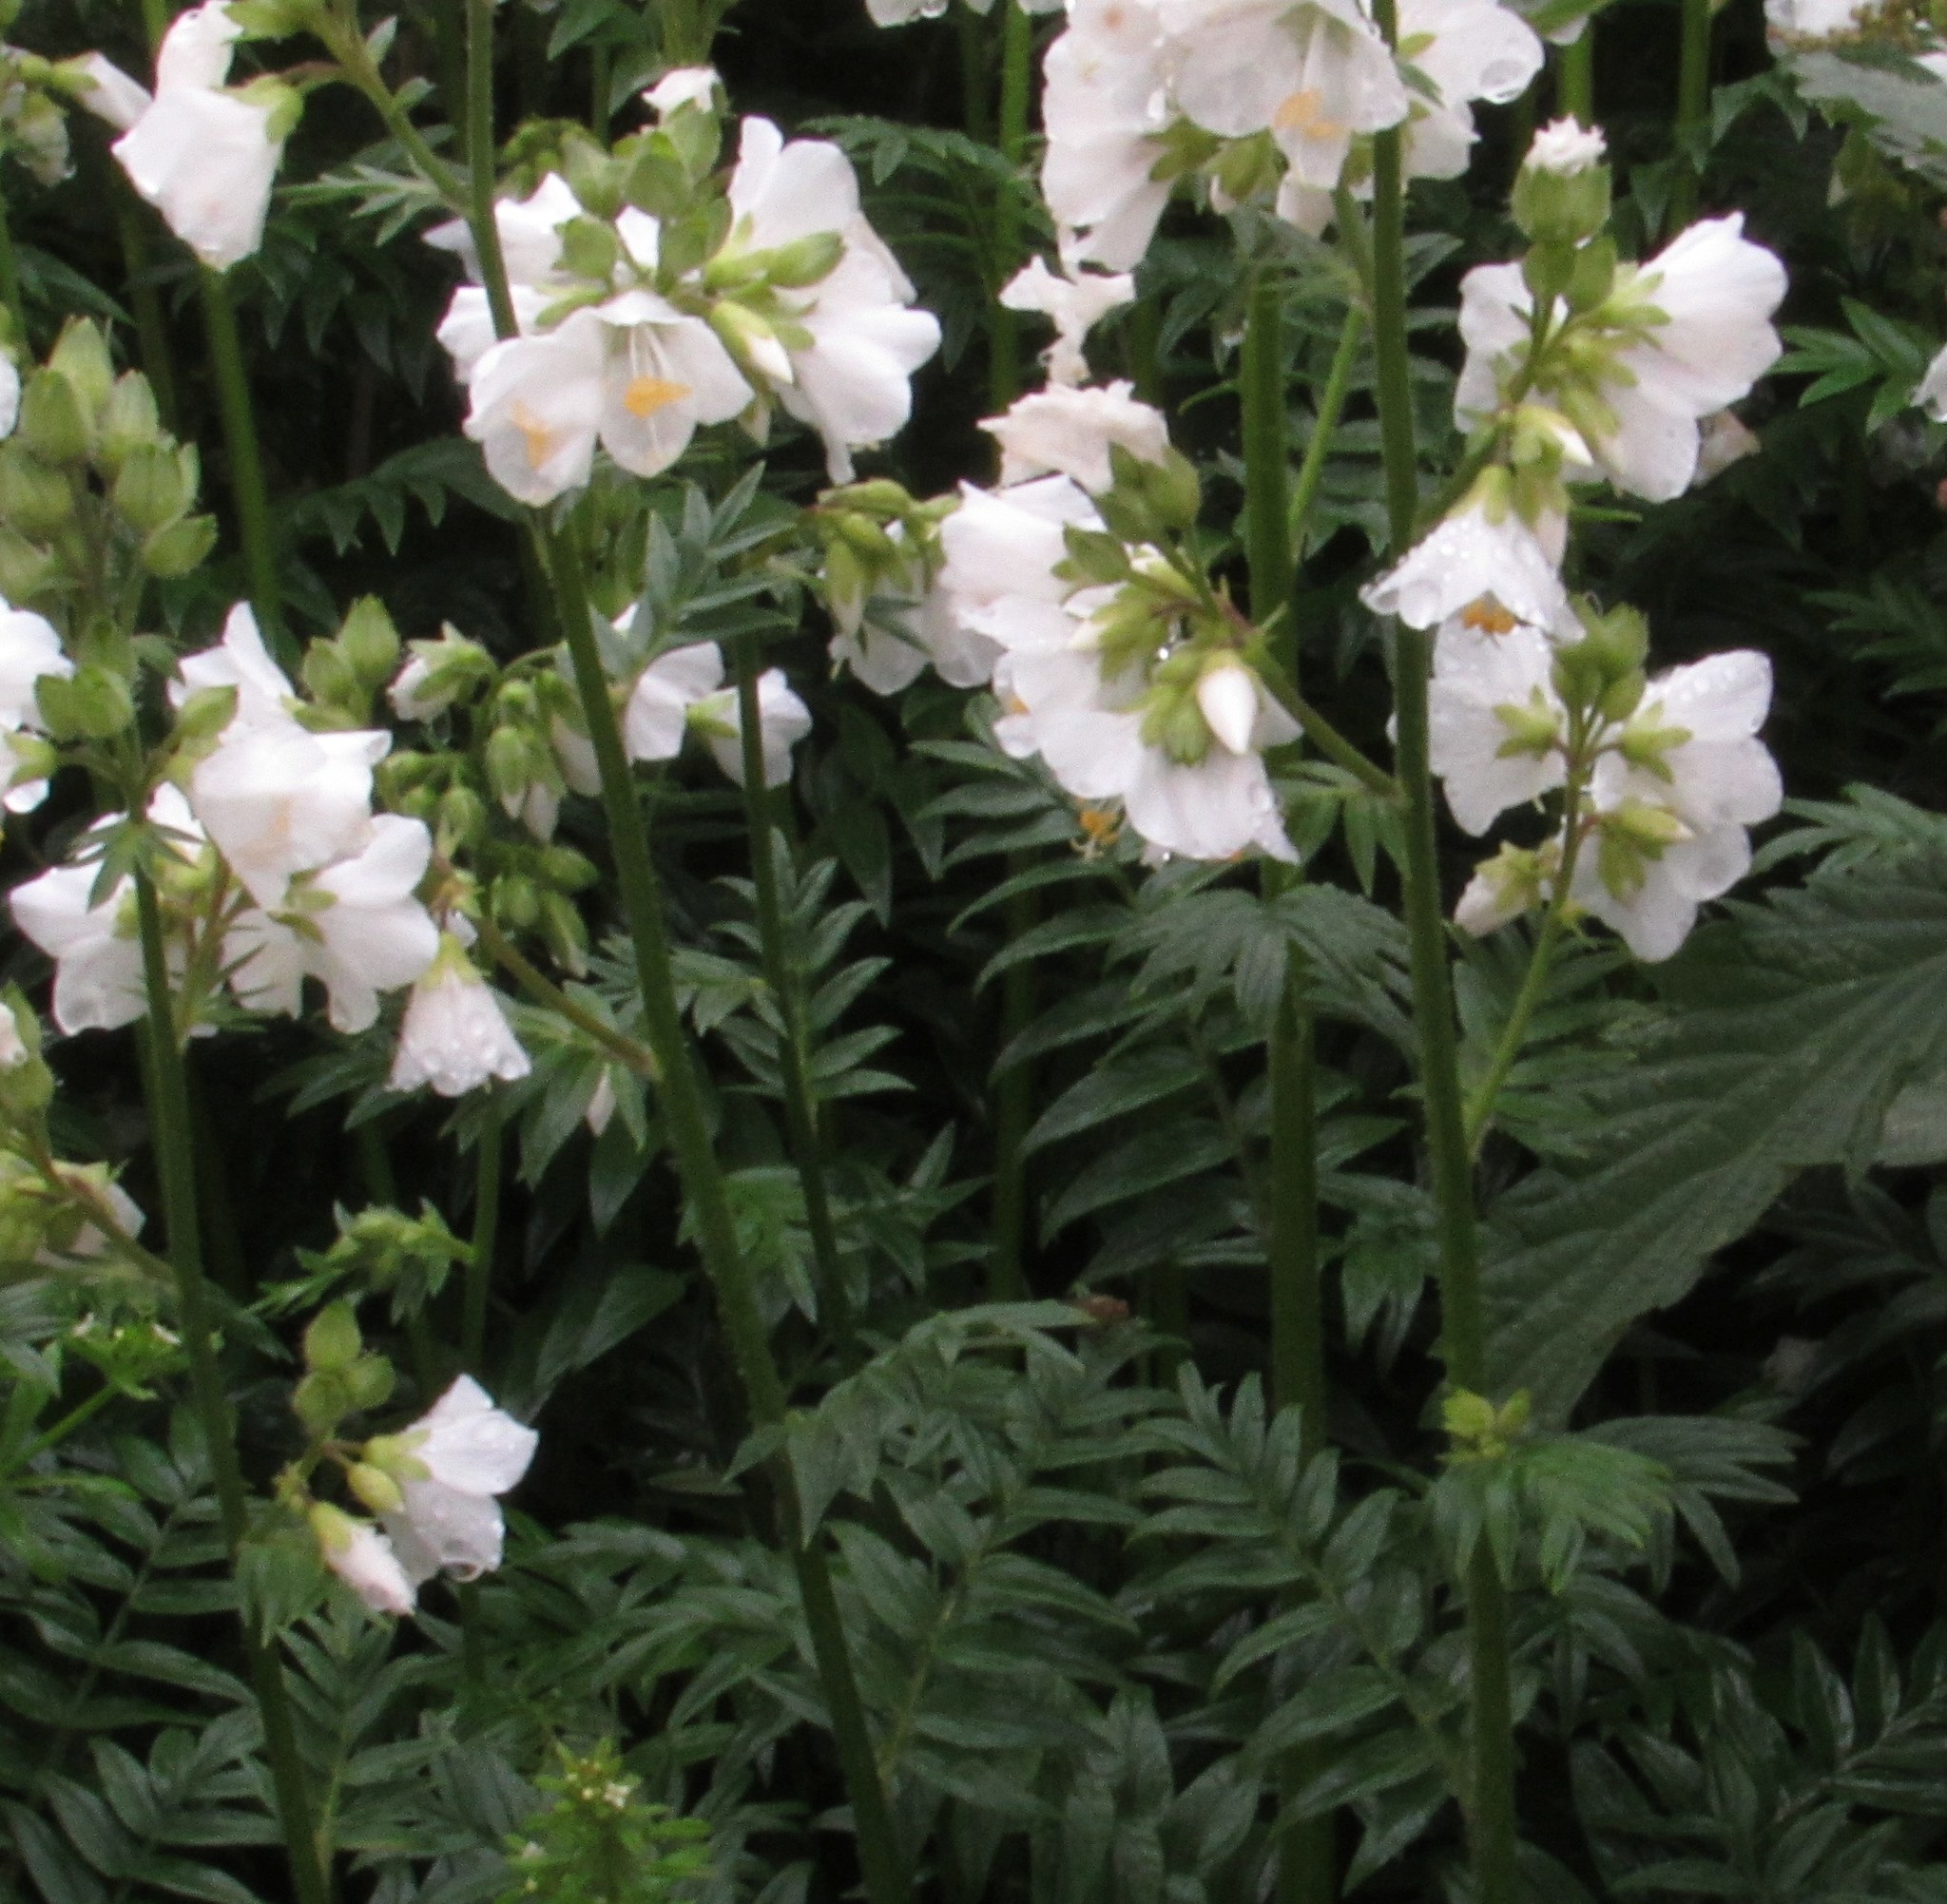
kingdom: Plantae
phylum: Tracheophyta
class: Magnoliopsida
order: Ericales
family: Polemoniaceae
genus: Polemonium
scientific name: Polemonium caeruleum
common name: Jacob's-ladder
